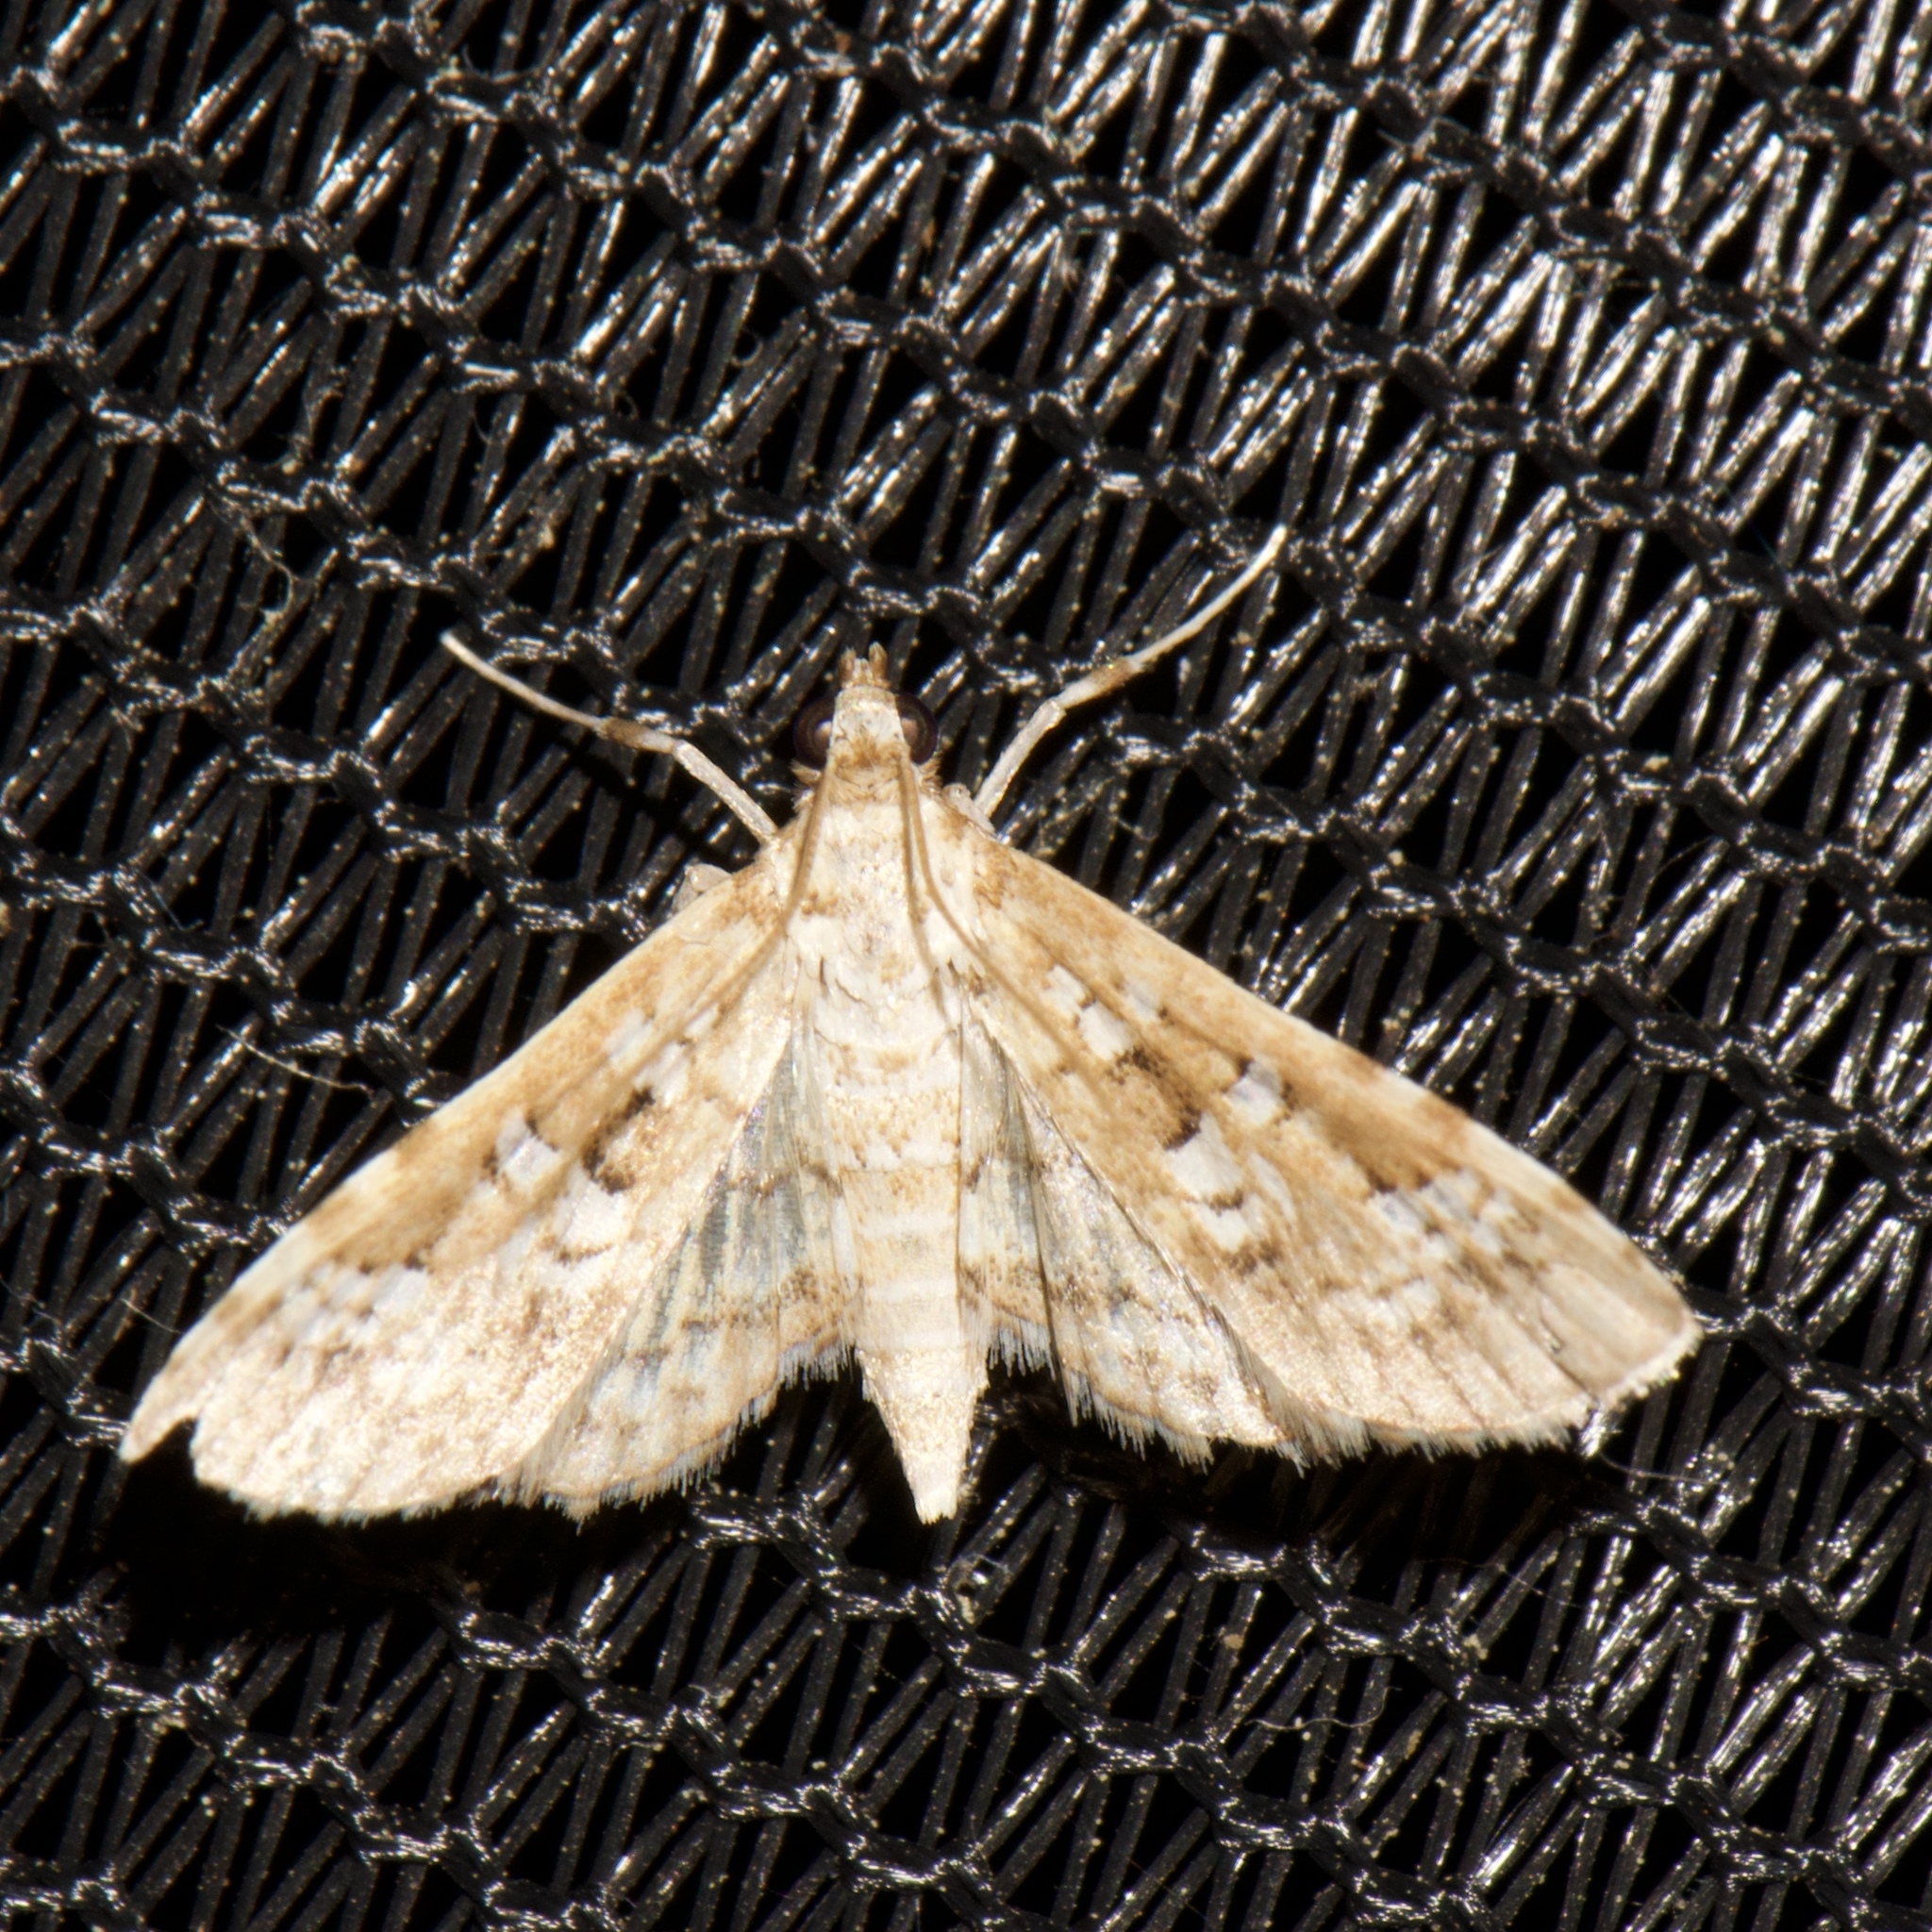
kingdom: Animalia
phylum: Arthropoda
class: Insecta
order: Lepidoptera
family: Crambidae
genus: Samea
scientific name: Samea multiplicalis
